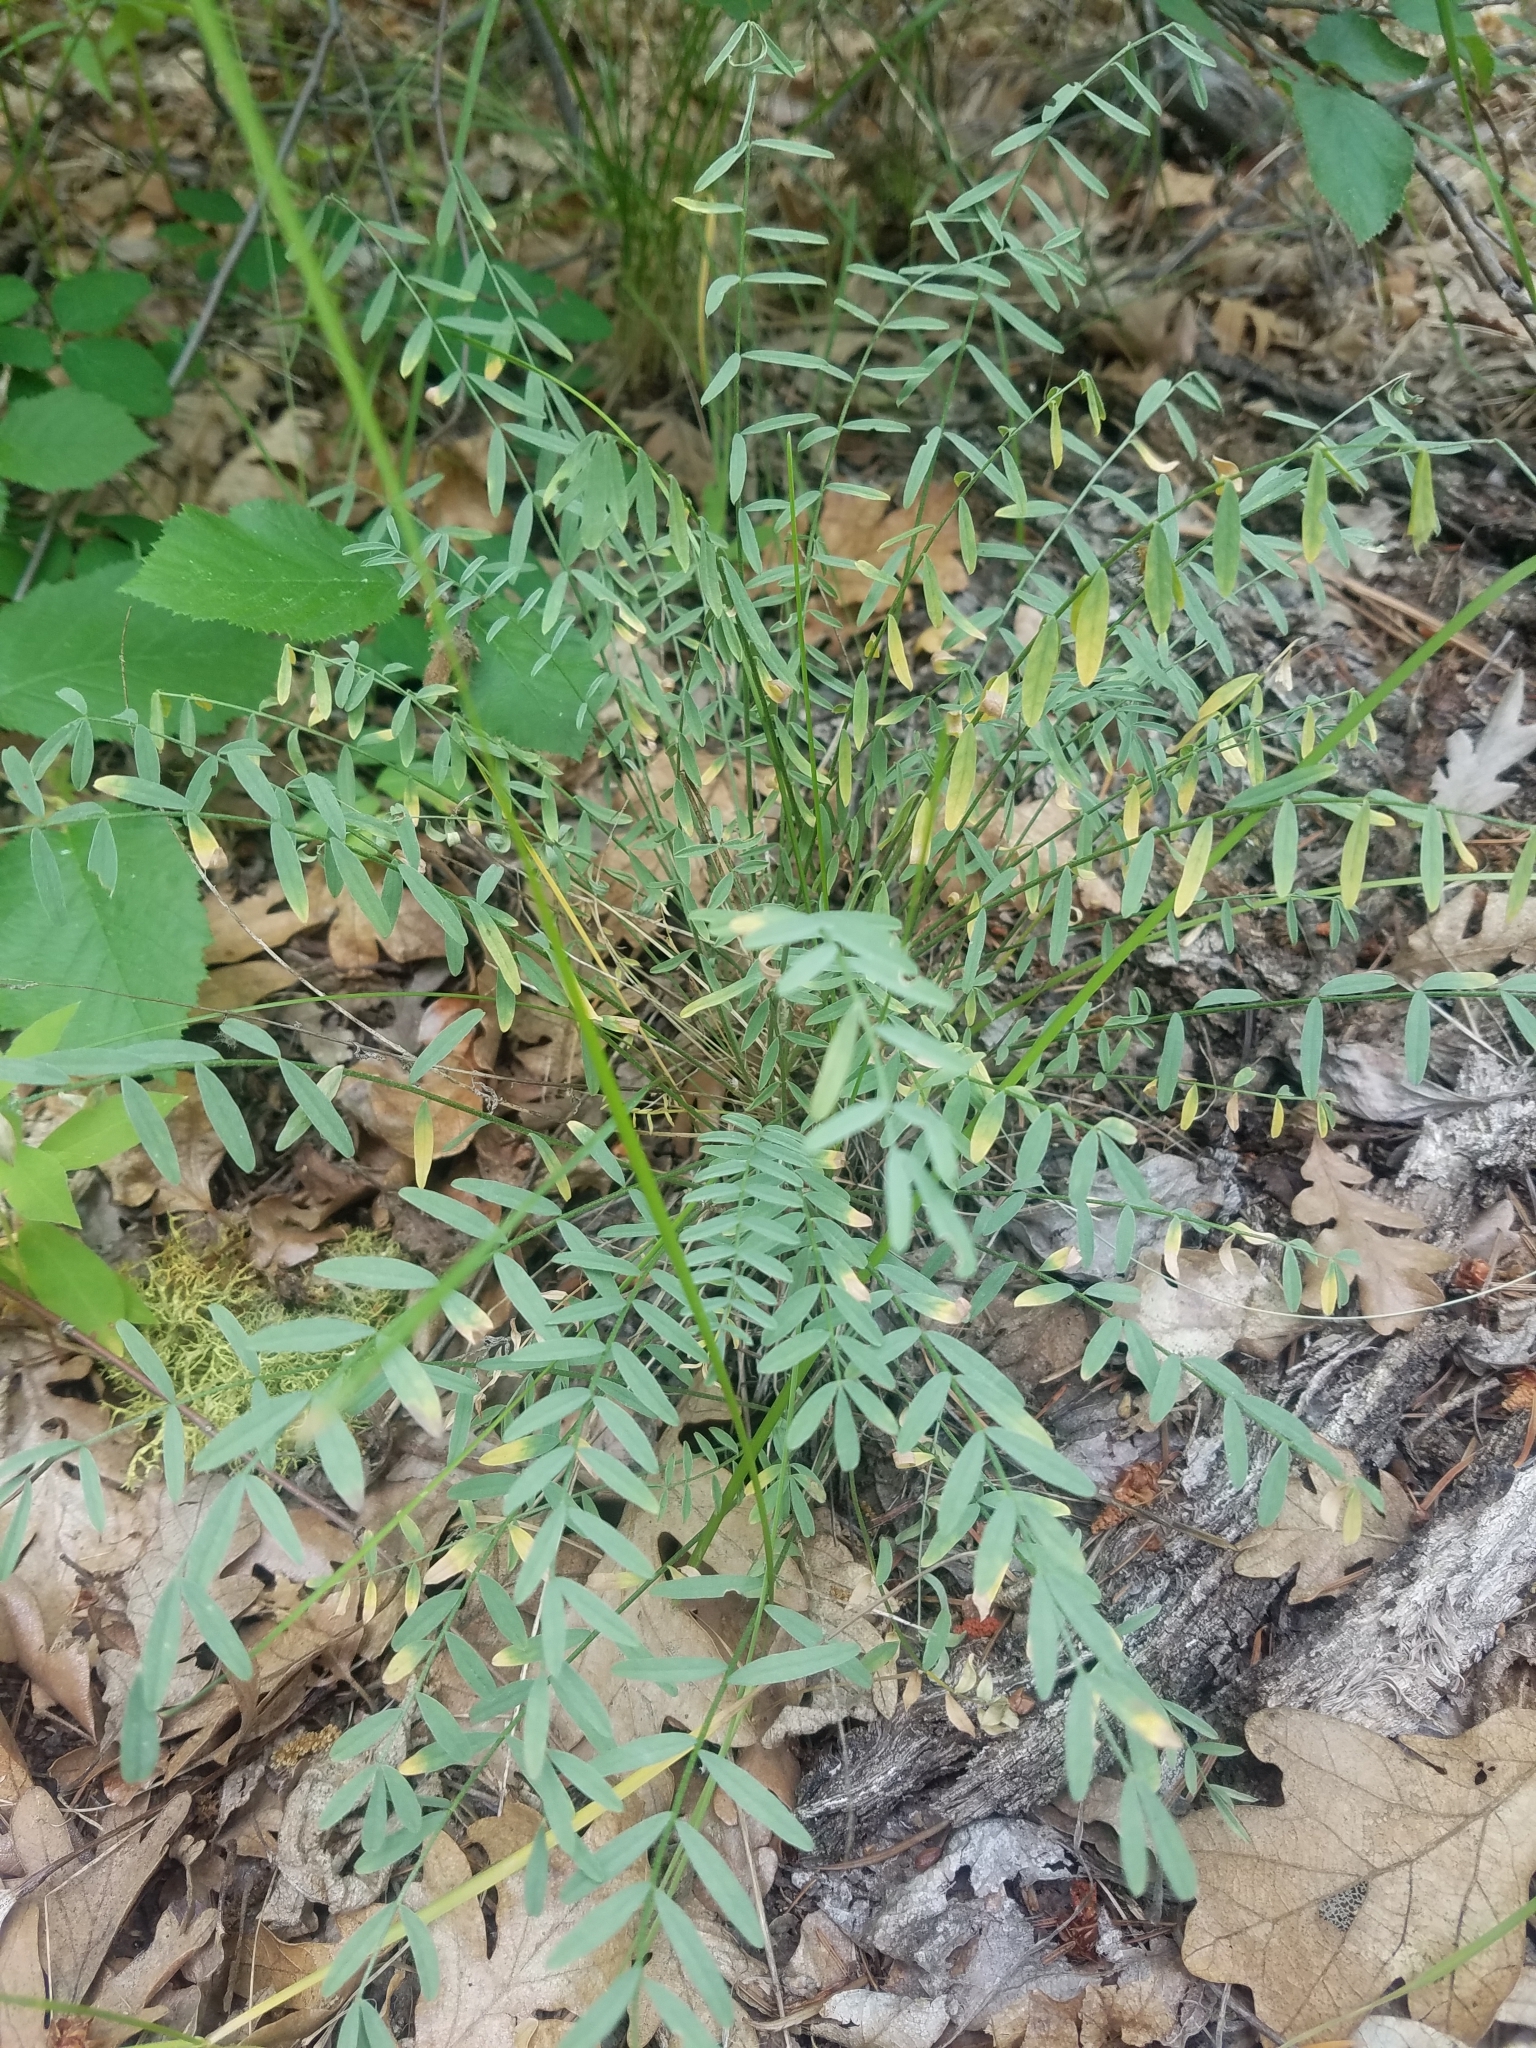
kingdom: Plantae
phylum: Tracheophyta
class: Magnoliopsida
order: Fabales
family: Fabaceae
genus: Astragalus
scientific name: Astragalus reventiformis
